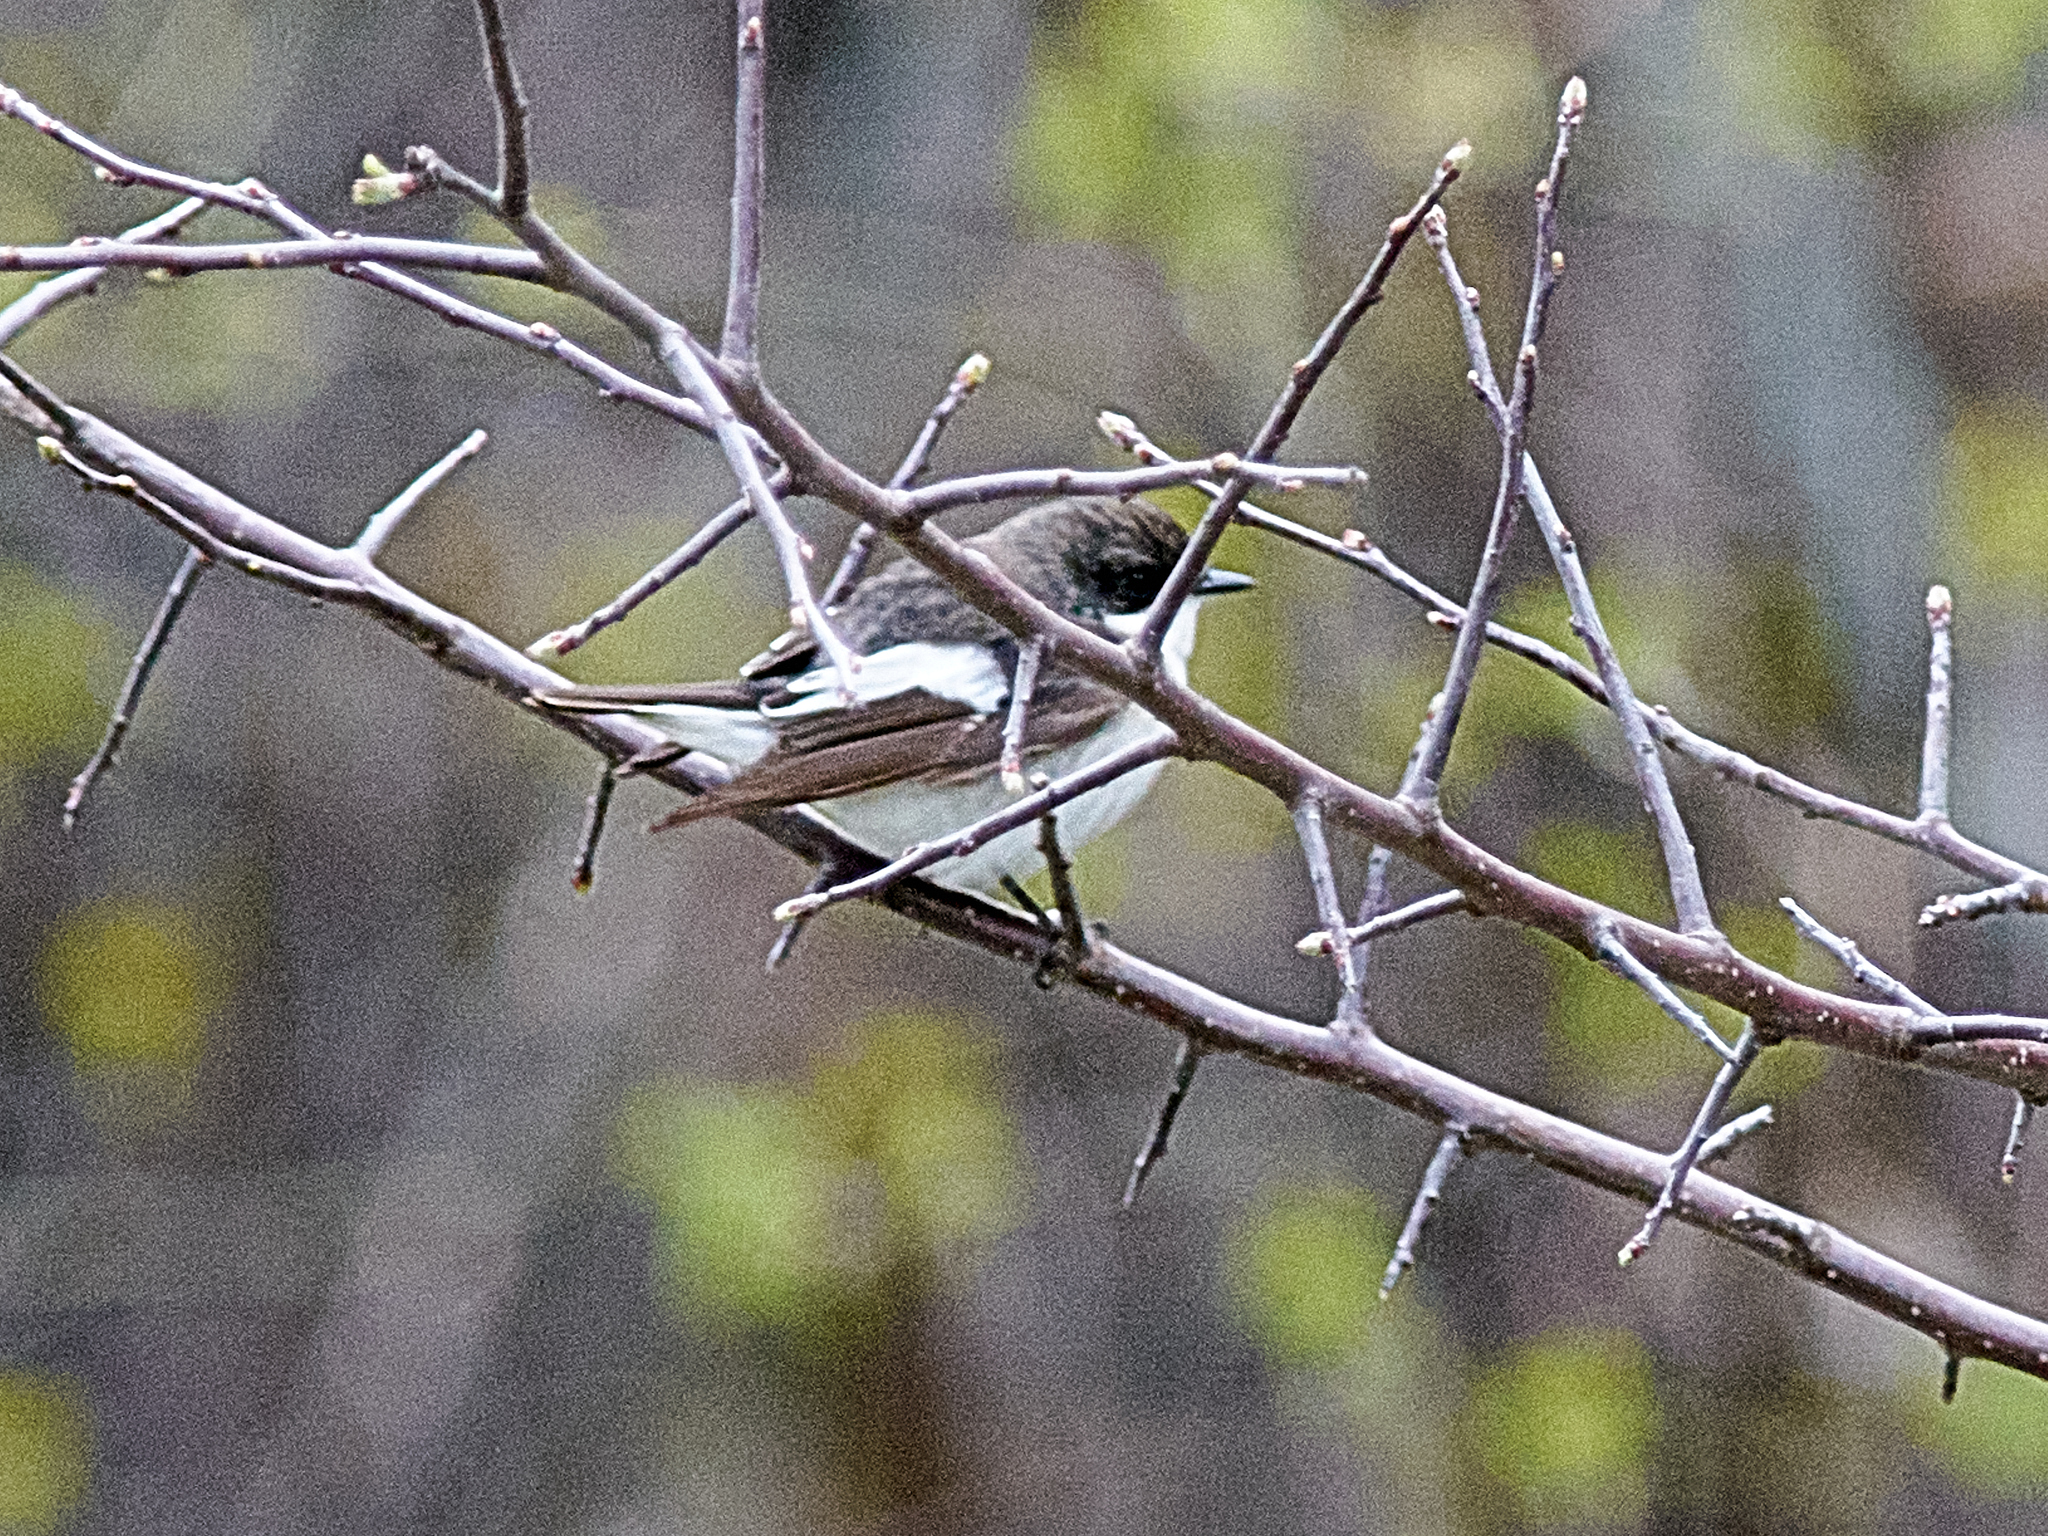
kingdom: Animalia
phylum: Chordata
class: Aves
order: Passeriformes
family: Muscicapidae
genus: Ficedula
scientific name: Ficedula hypoleuca
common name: European pied flycatcher
